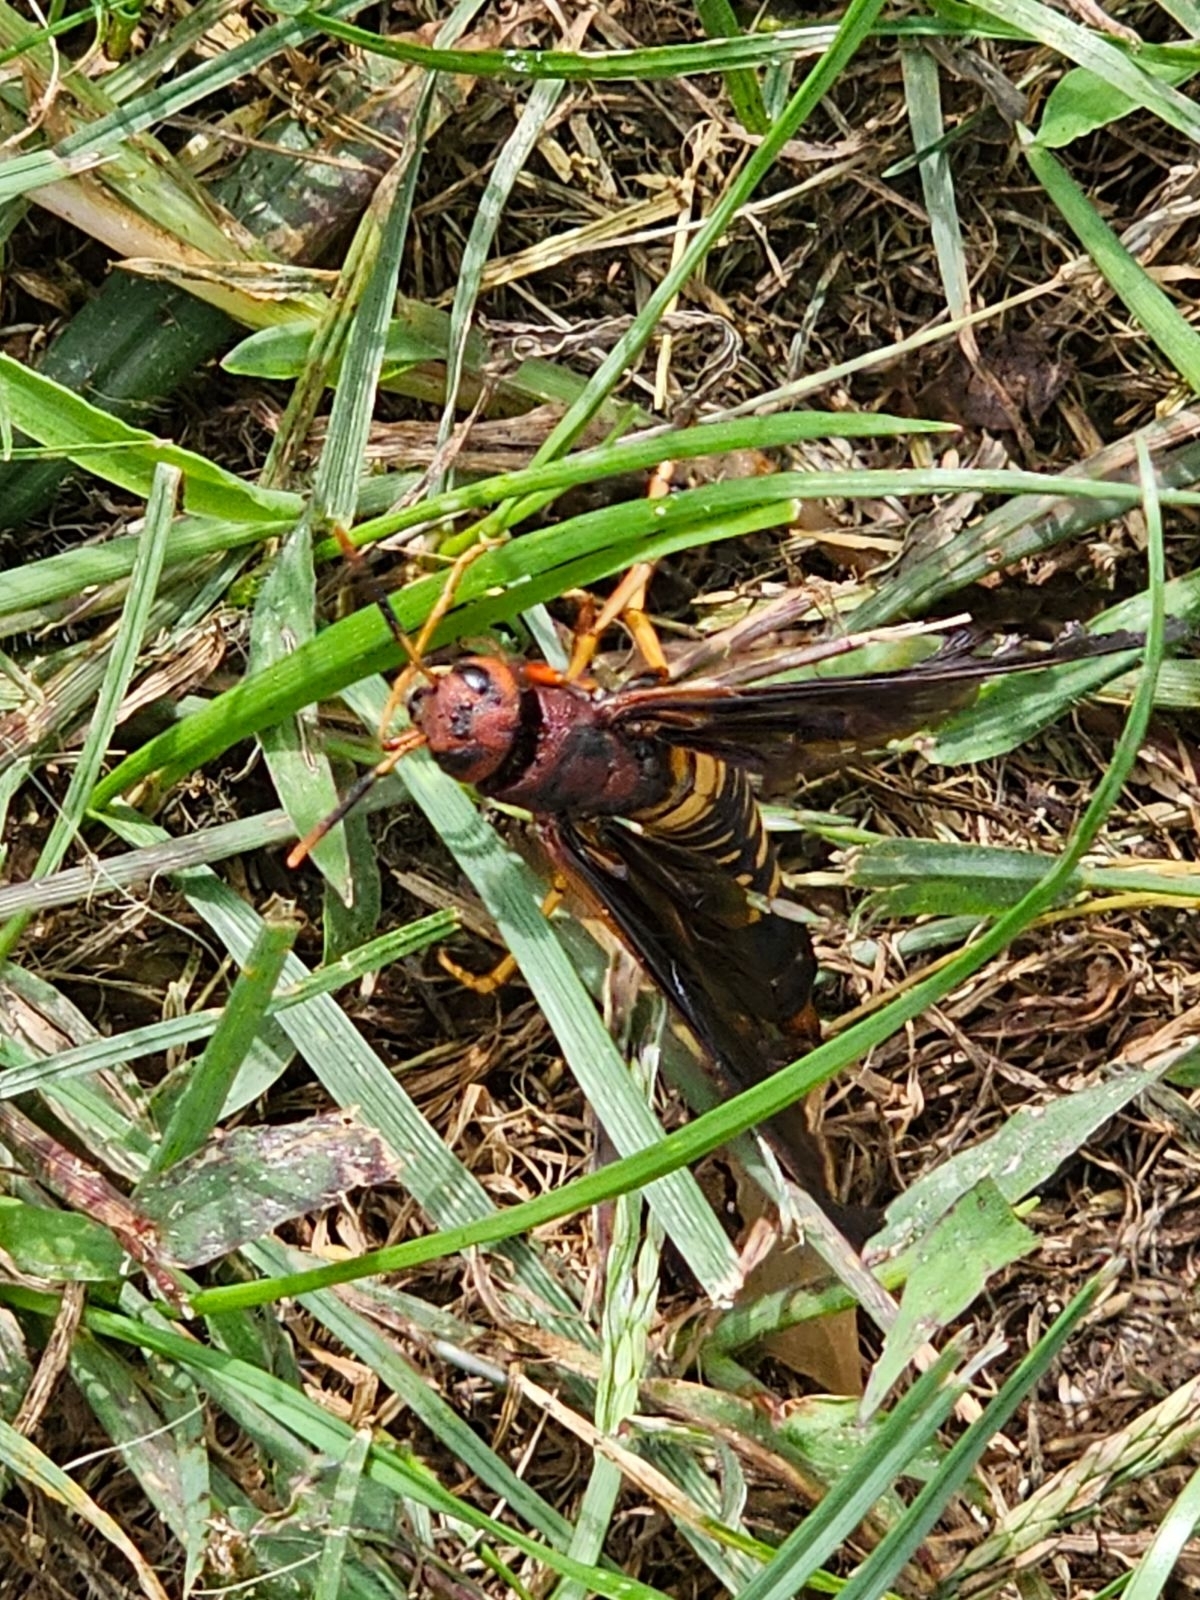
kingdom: Animalia
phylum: Arthropoda
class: Insecta
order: Hymenoptera
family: Siricidae
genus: Tremex
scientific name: Tremex columba
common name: Wasp
